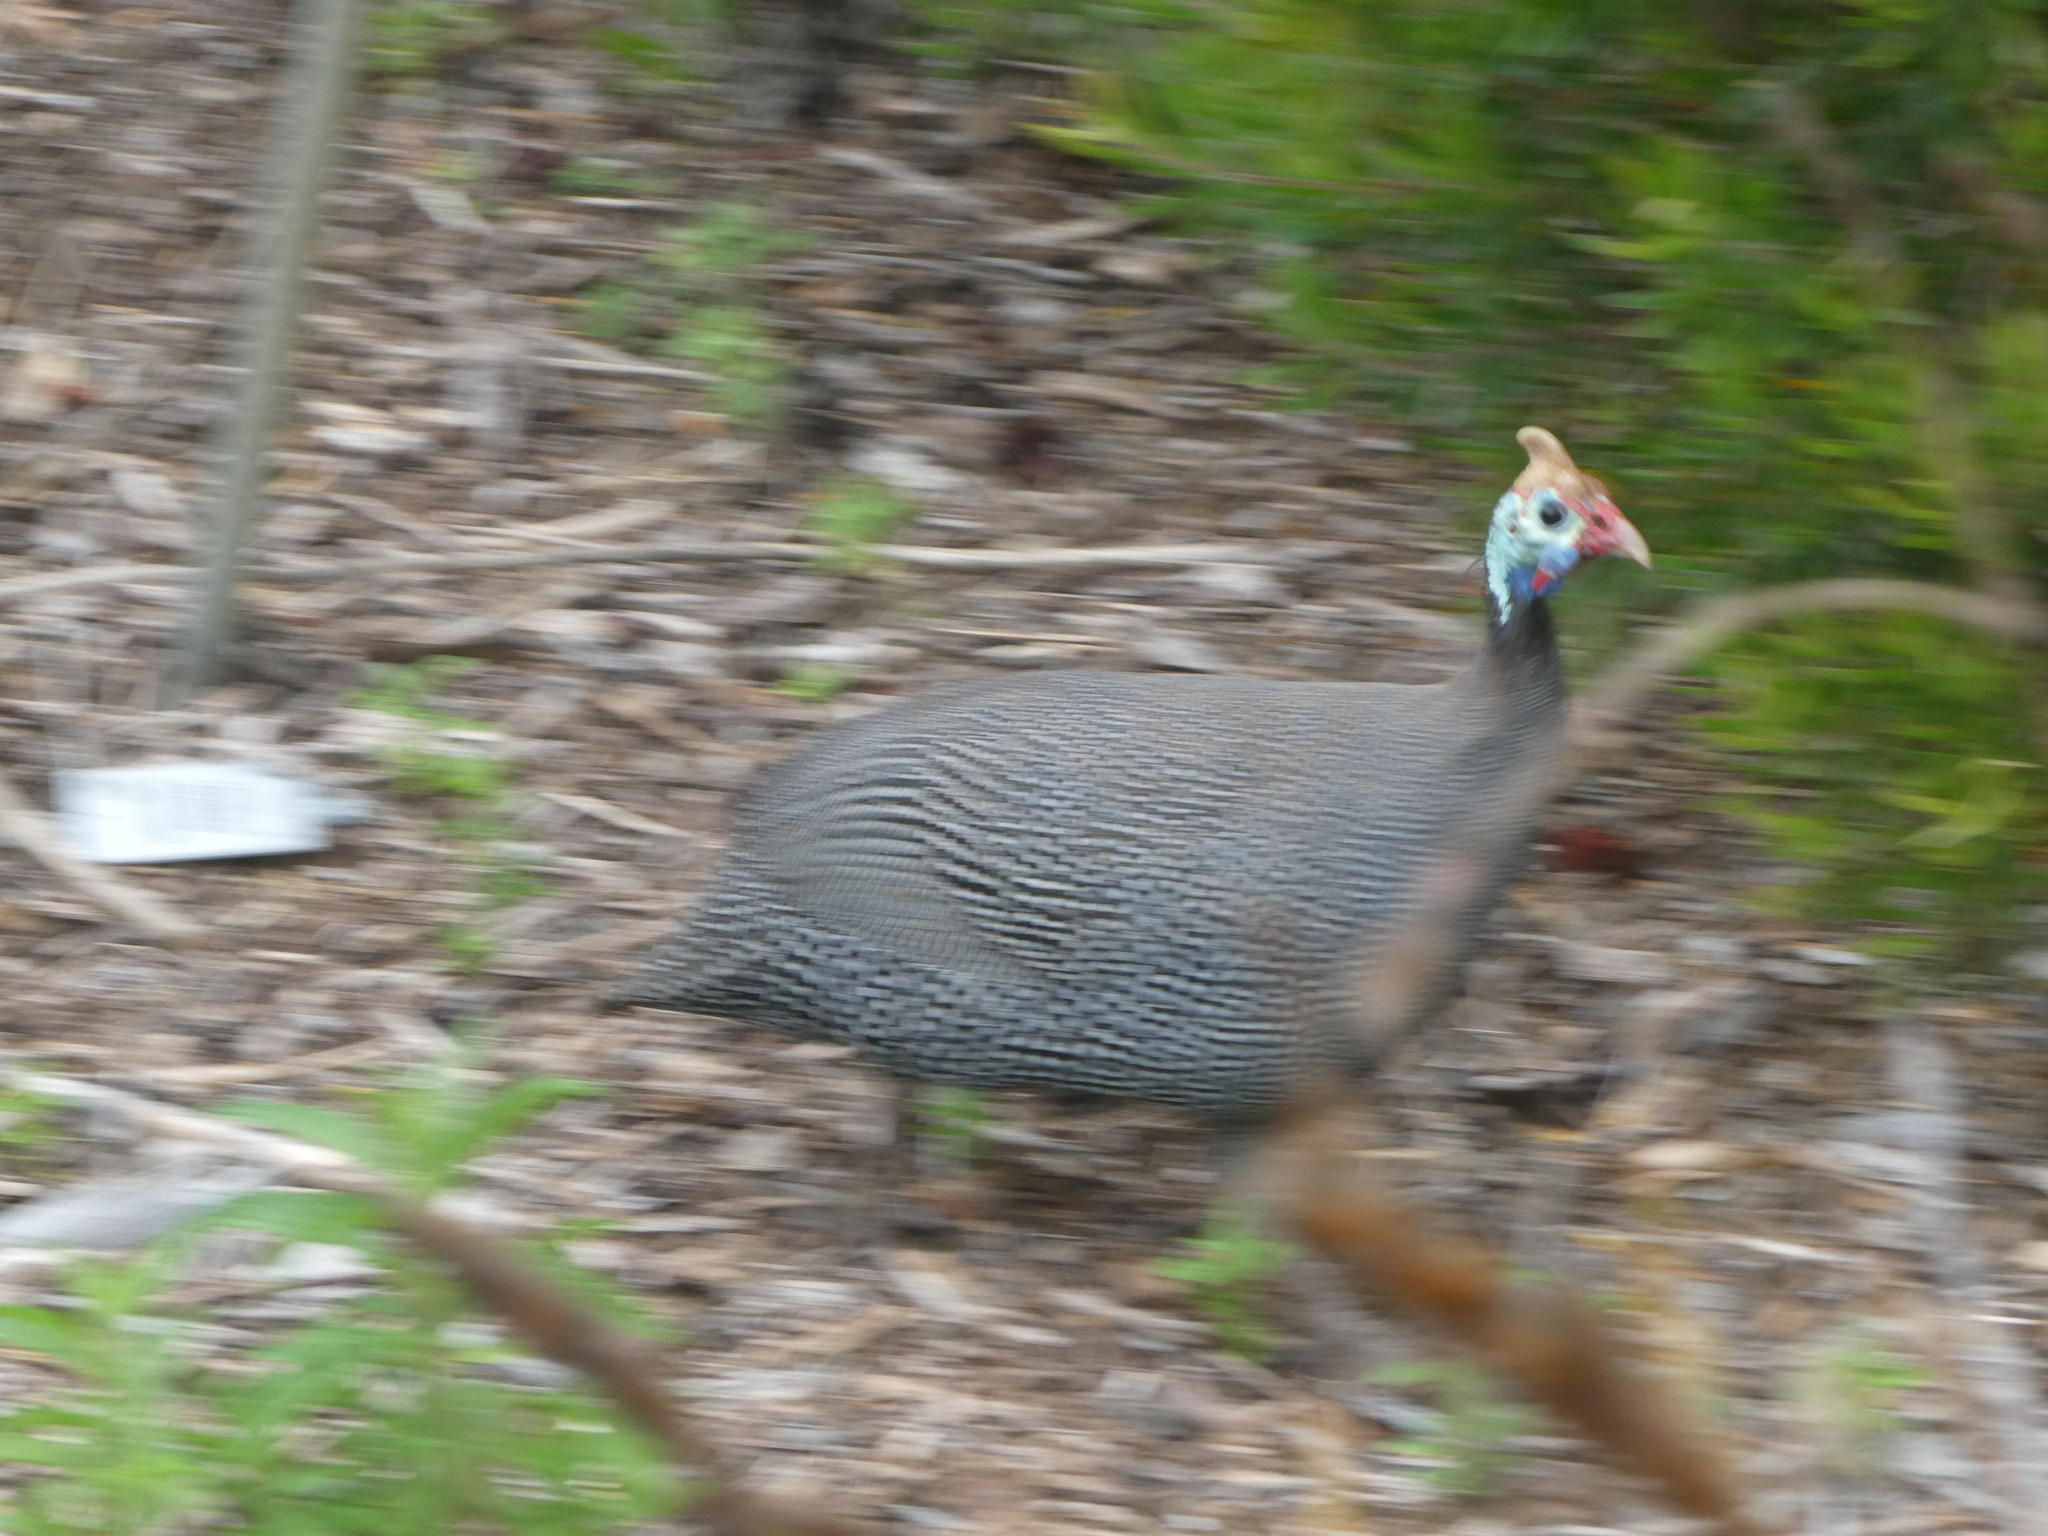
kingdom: Animalia
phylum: Chordata
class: Aves
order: Galliformes
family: Numididae
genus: Numida
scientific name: Numida meleagris
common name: Helmeted guineafowl
